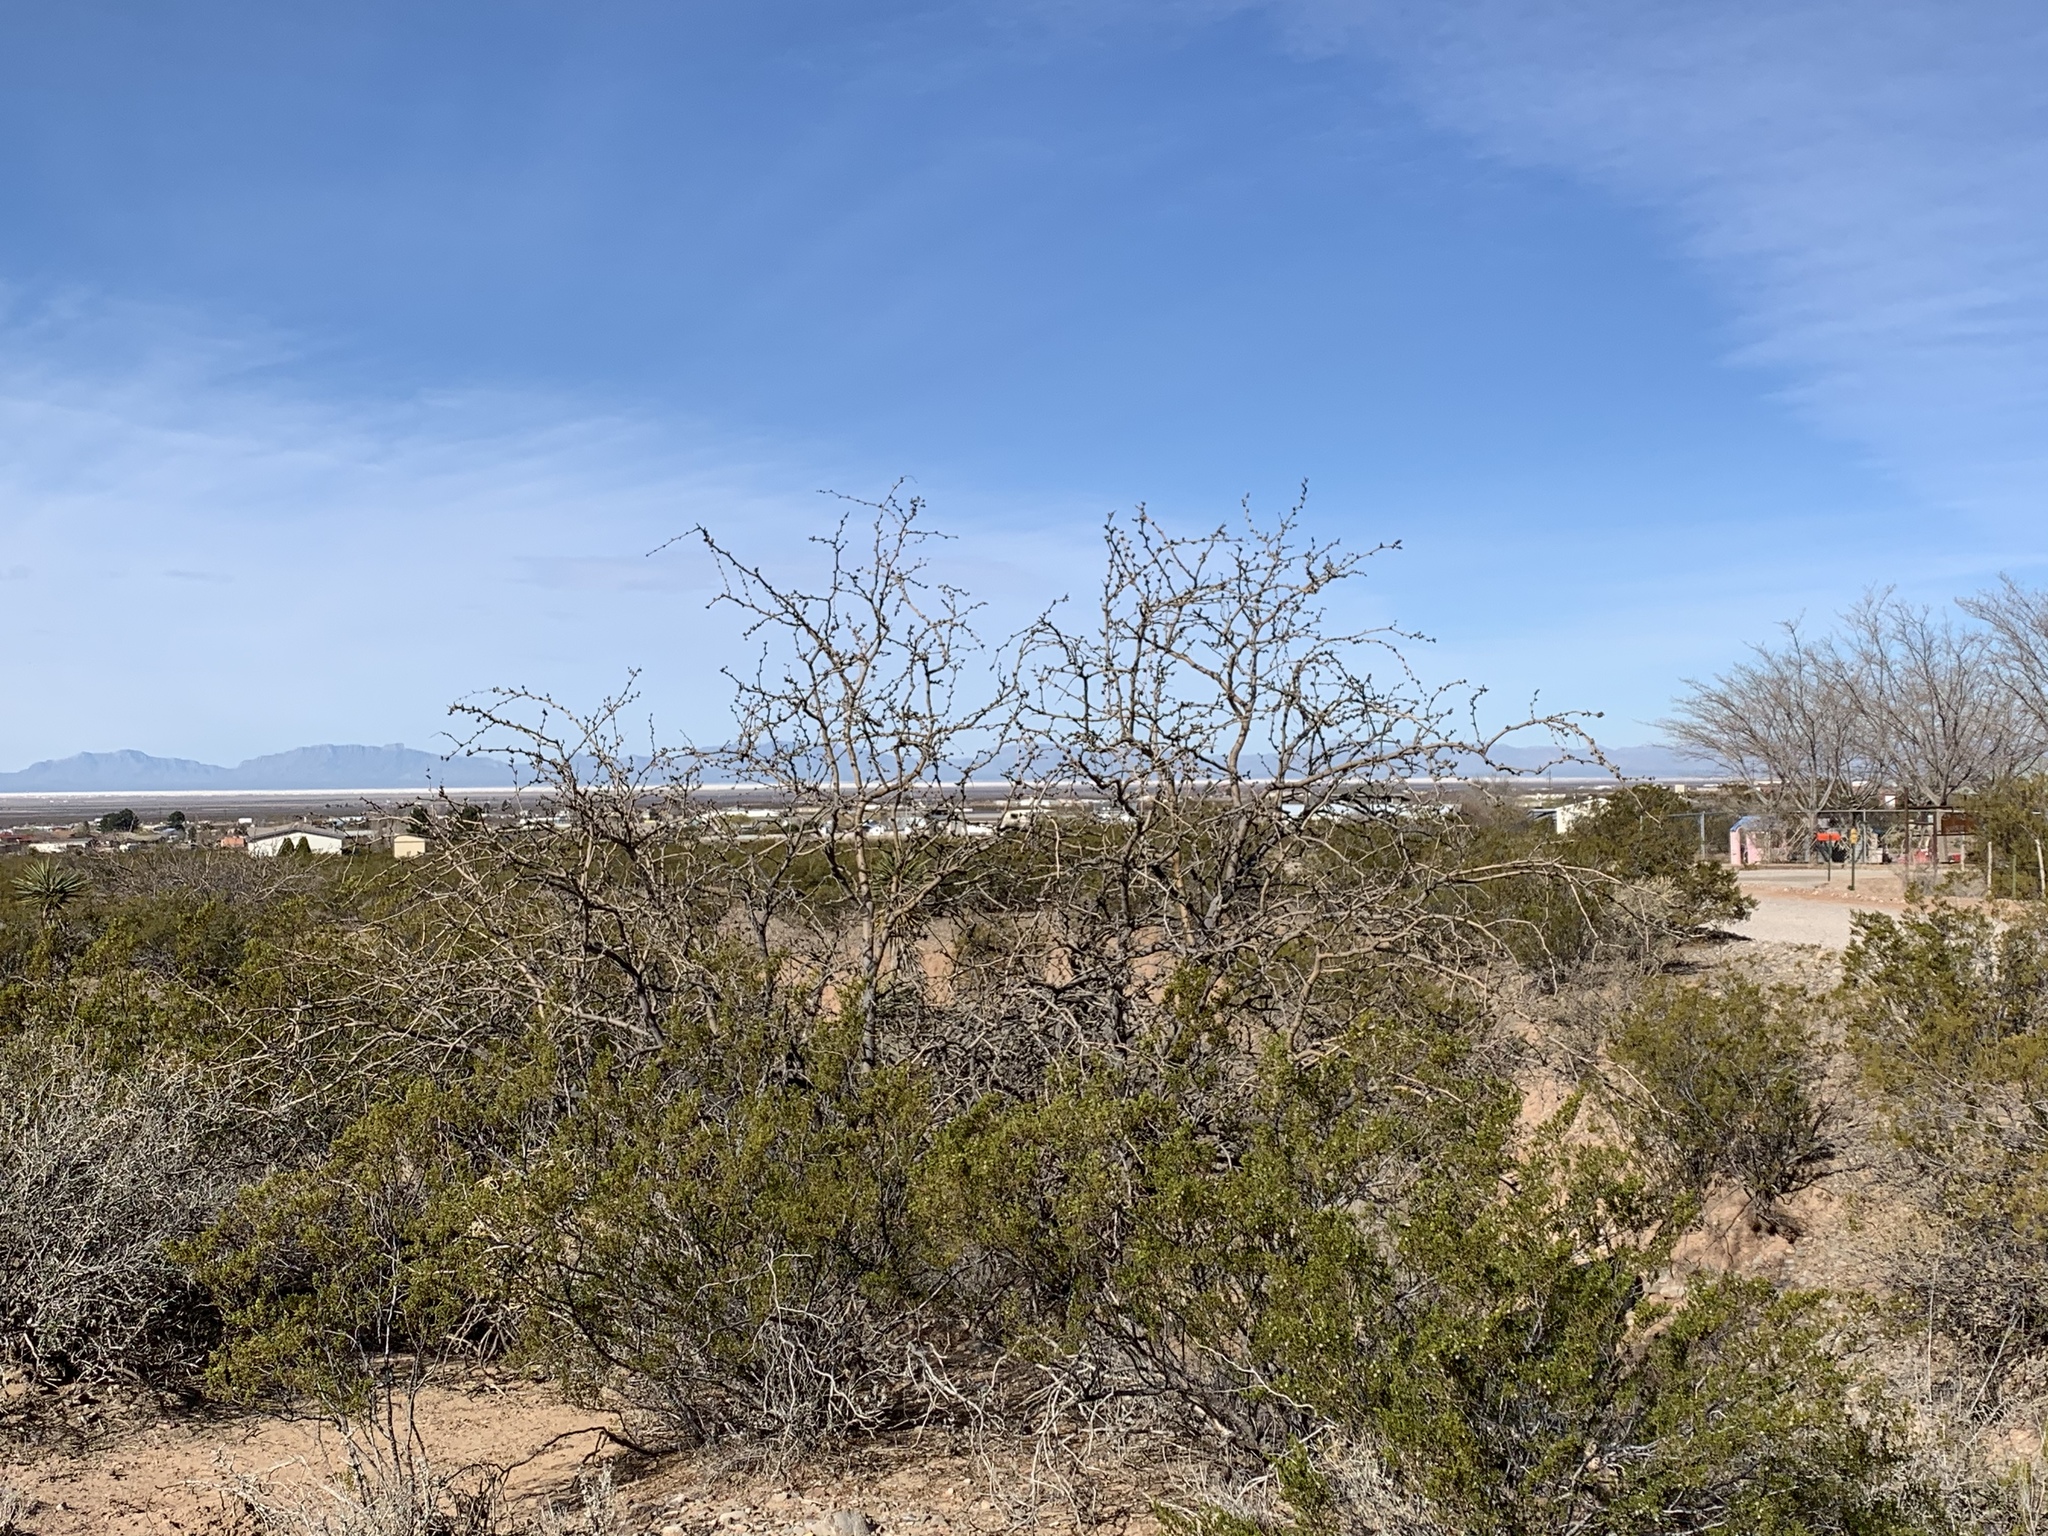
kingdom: Plantae
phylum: Tracheophyta
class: Magnoliopsida
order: Fabales
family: Fabaceae
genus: Prosopis
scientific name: Prosopis glandulosa
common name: Honey mesquite
